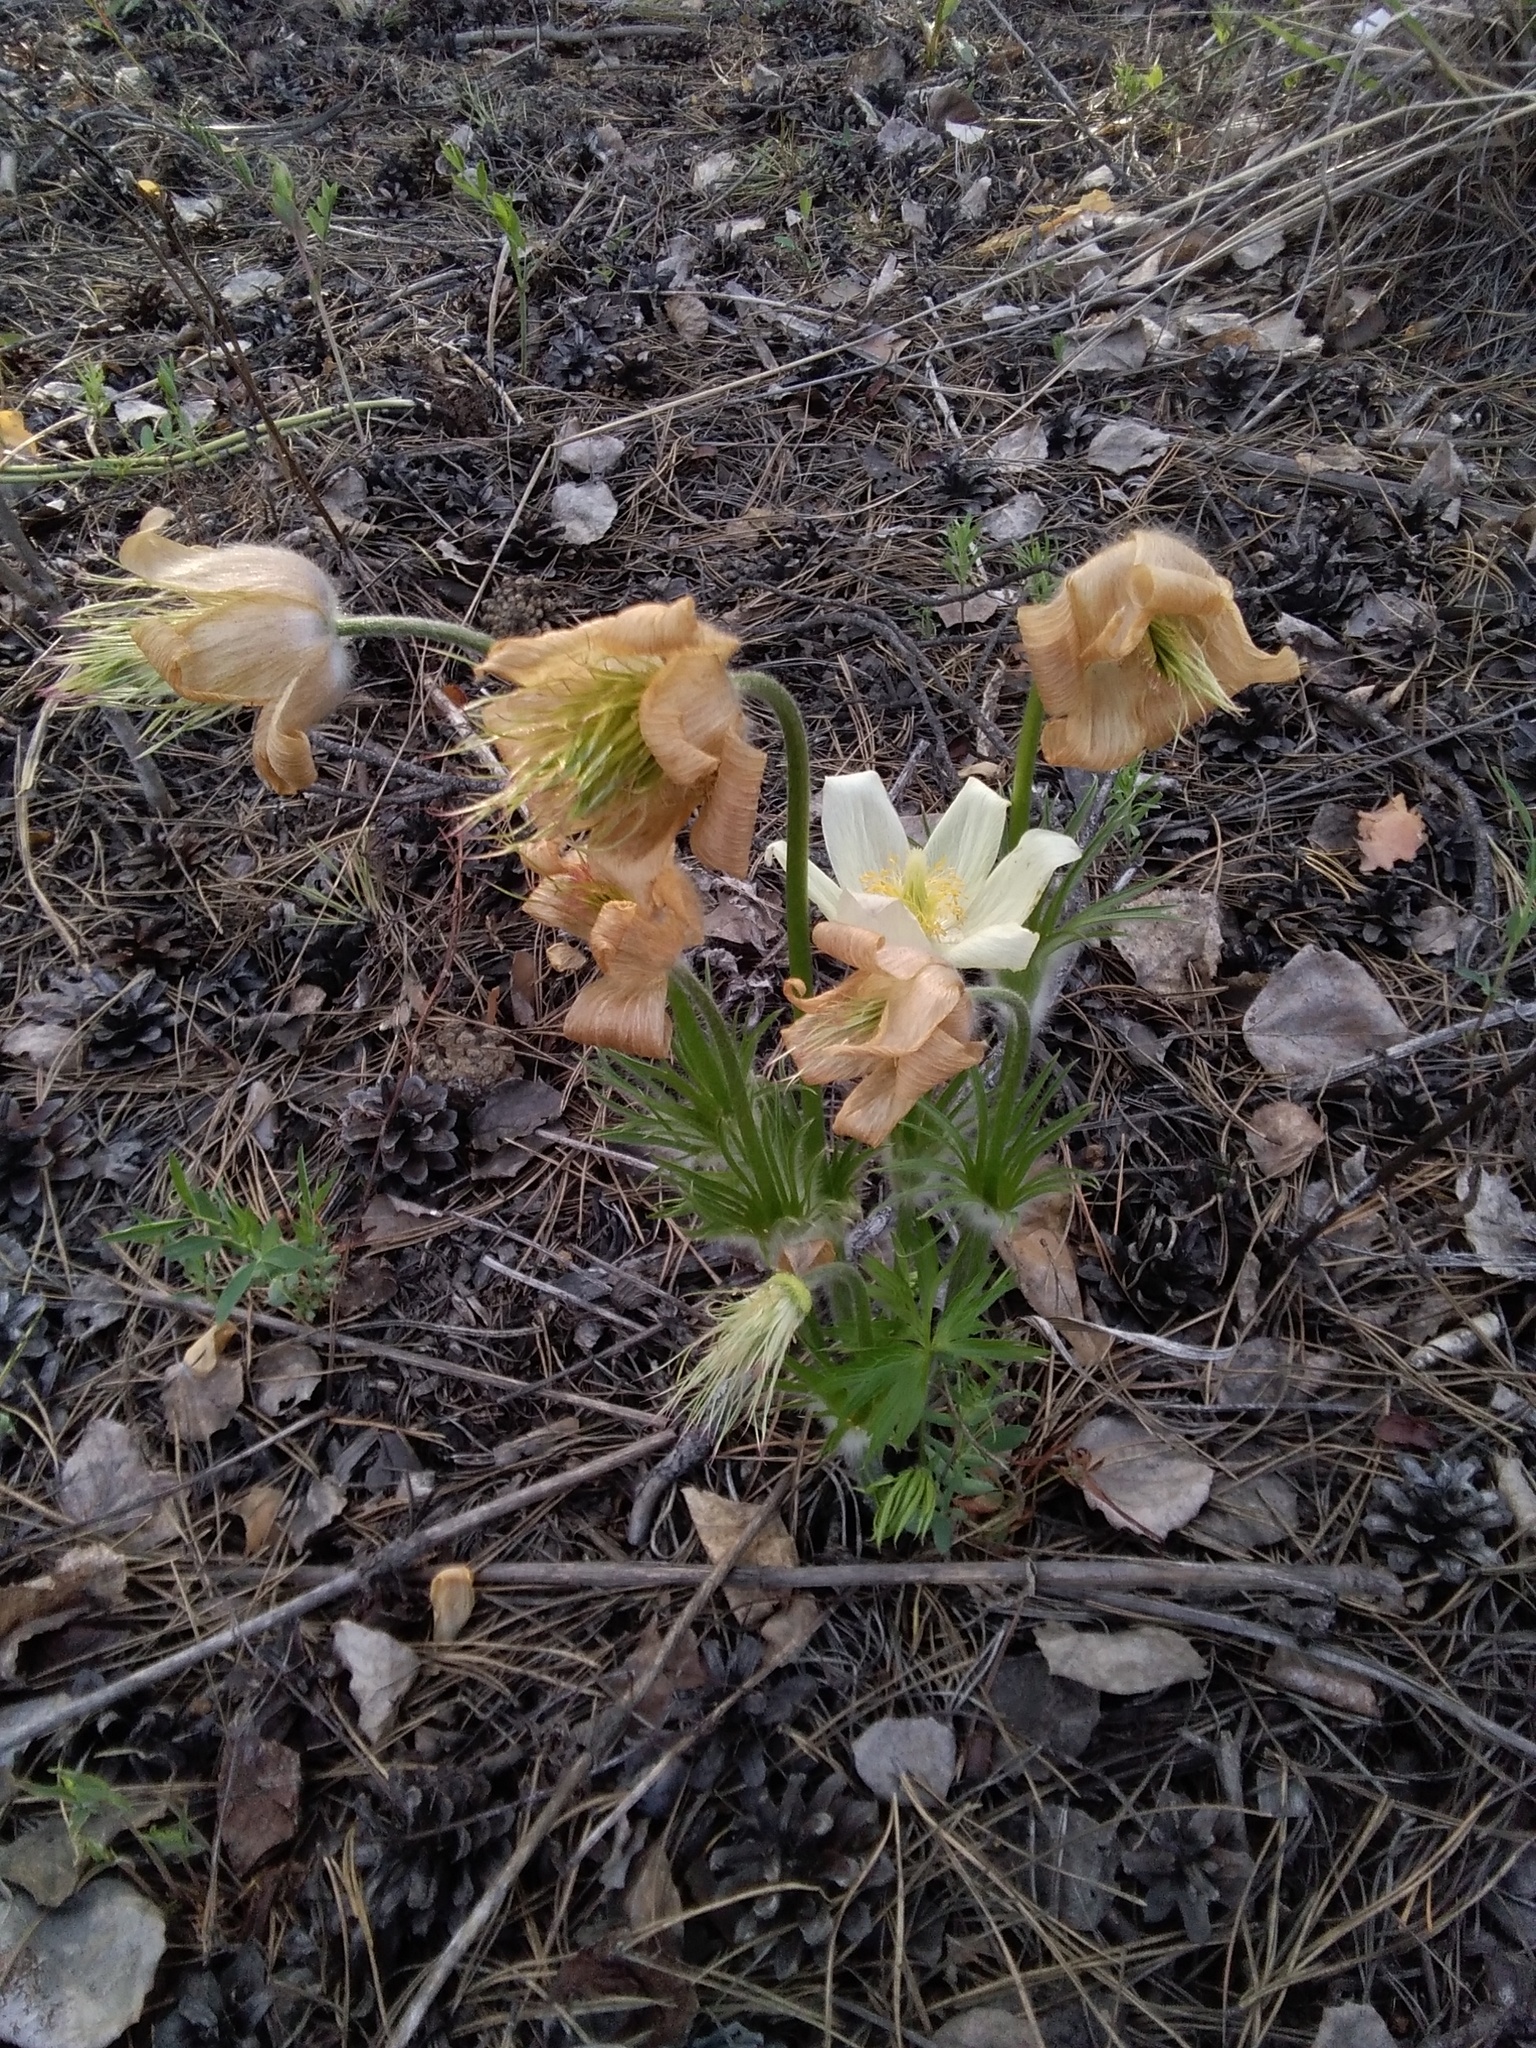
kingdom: Plantae
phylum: Tracheophyta
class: Magnoliopsida
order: Ranunculales
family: Ranunculaceae
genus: Pulsatilla
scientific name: Pulsatilla patens
